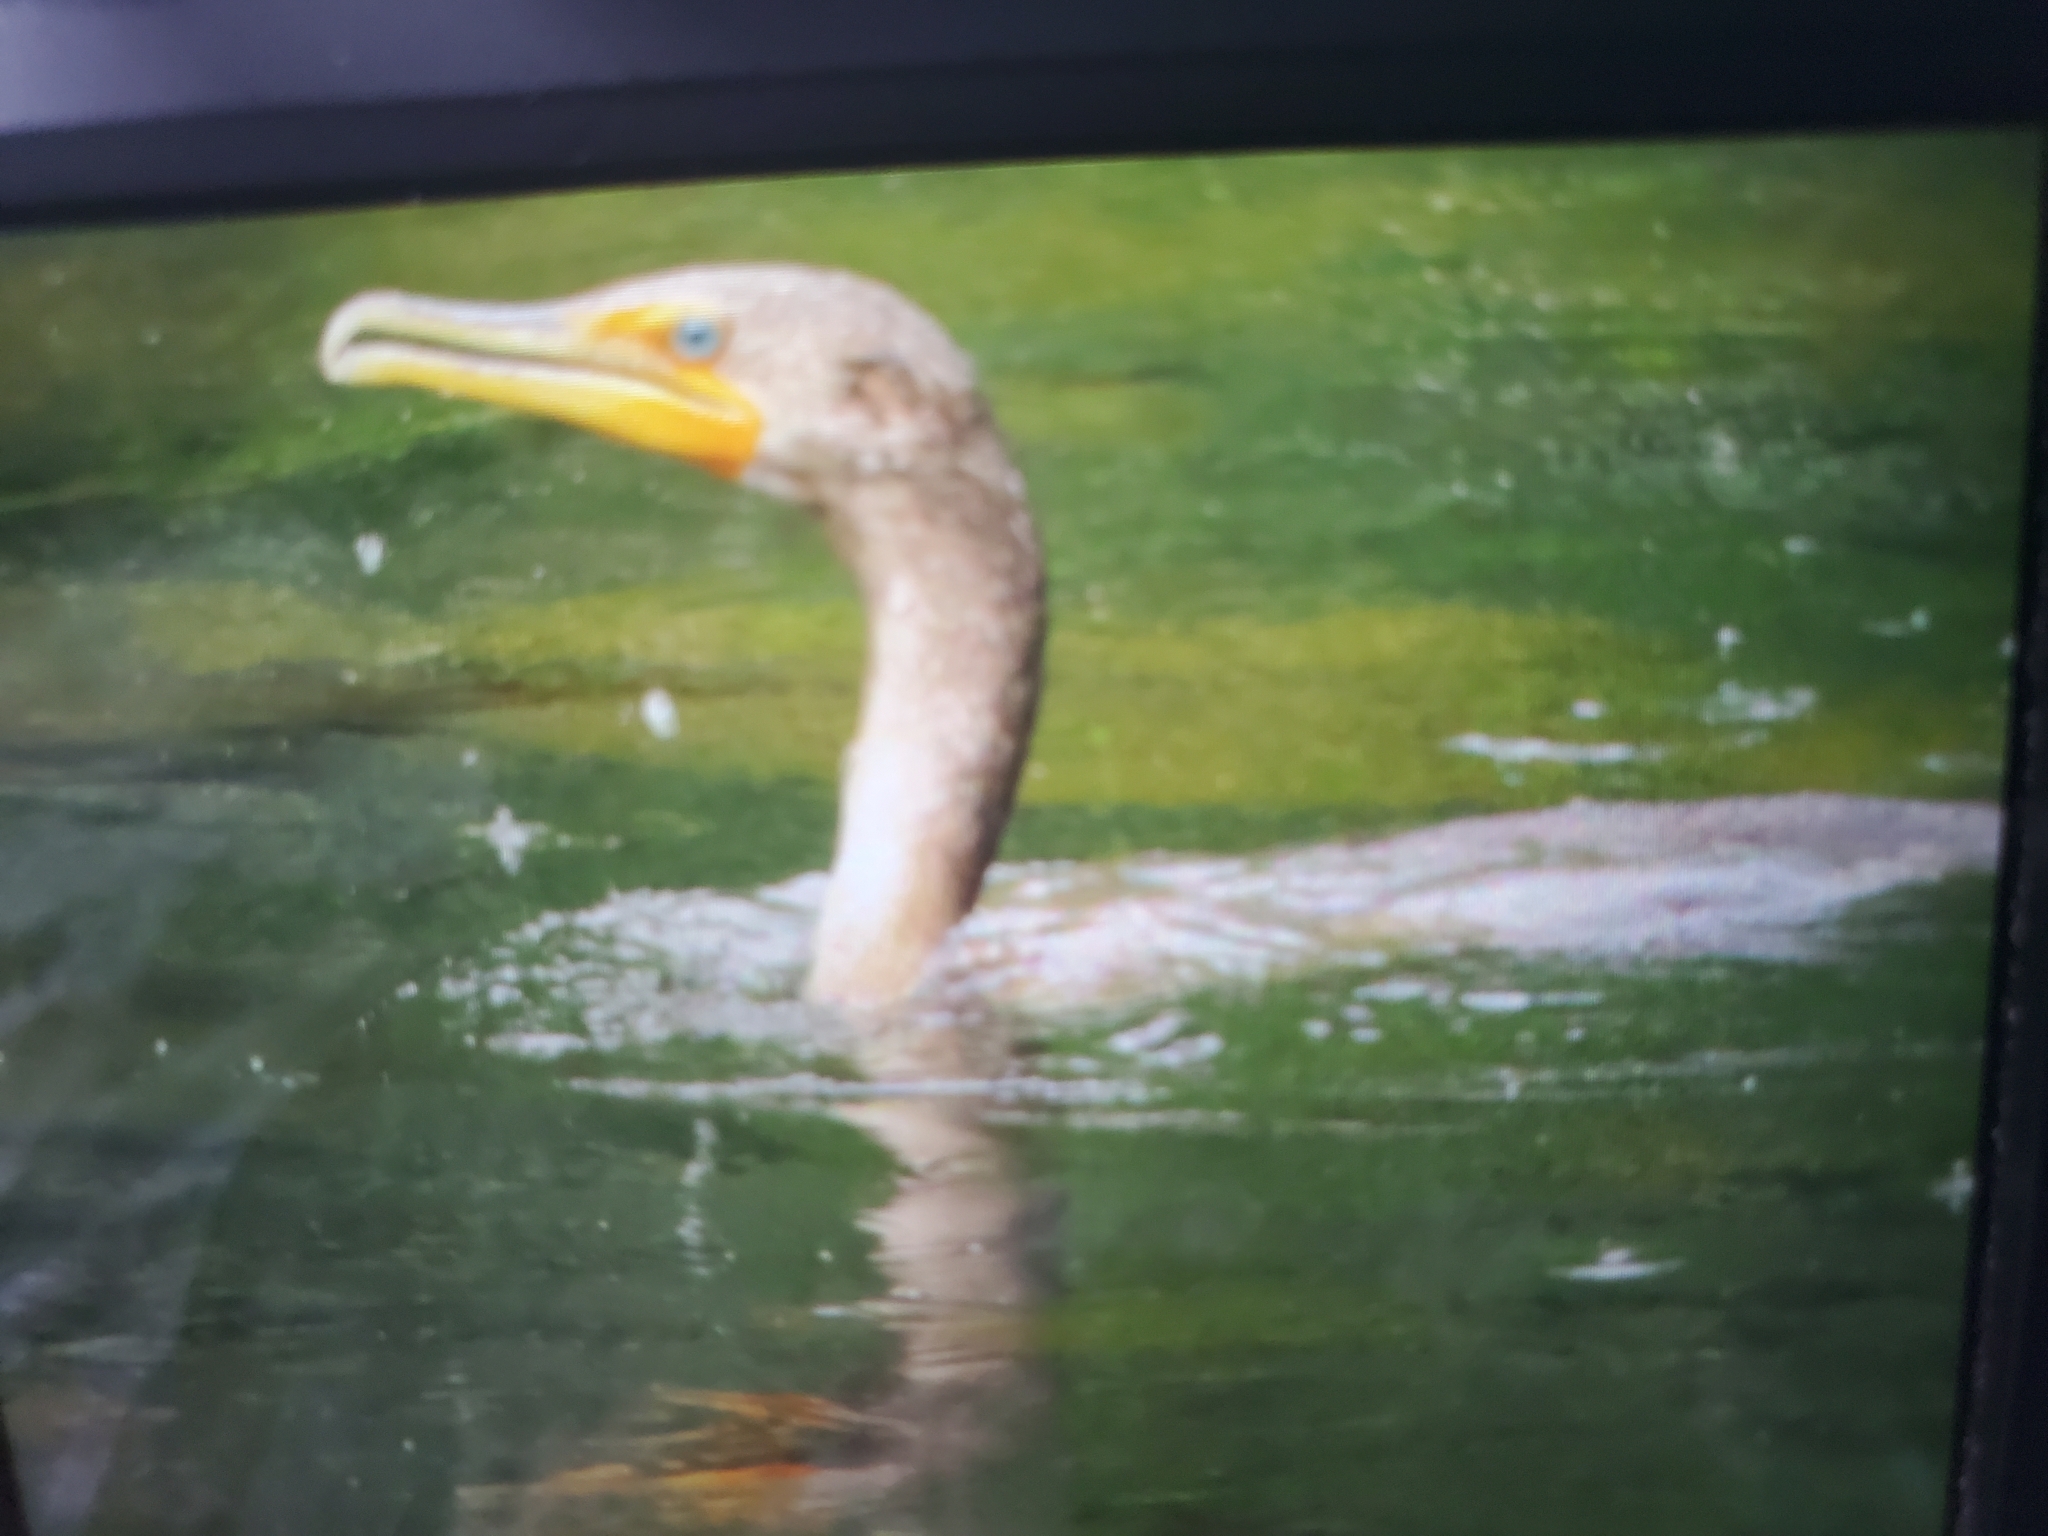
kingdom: Animalia
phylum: Chordata
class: Aves
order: Suliformes
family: Phalacrocoracidae
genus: Phalacrocorax
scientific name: Phalacrocorax auritus
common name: Double-crested cormorant
